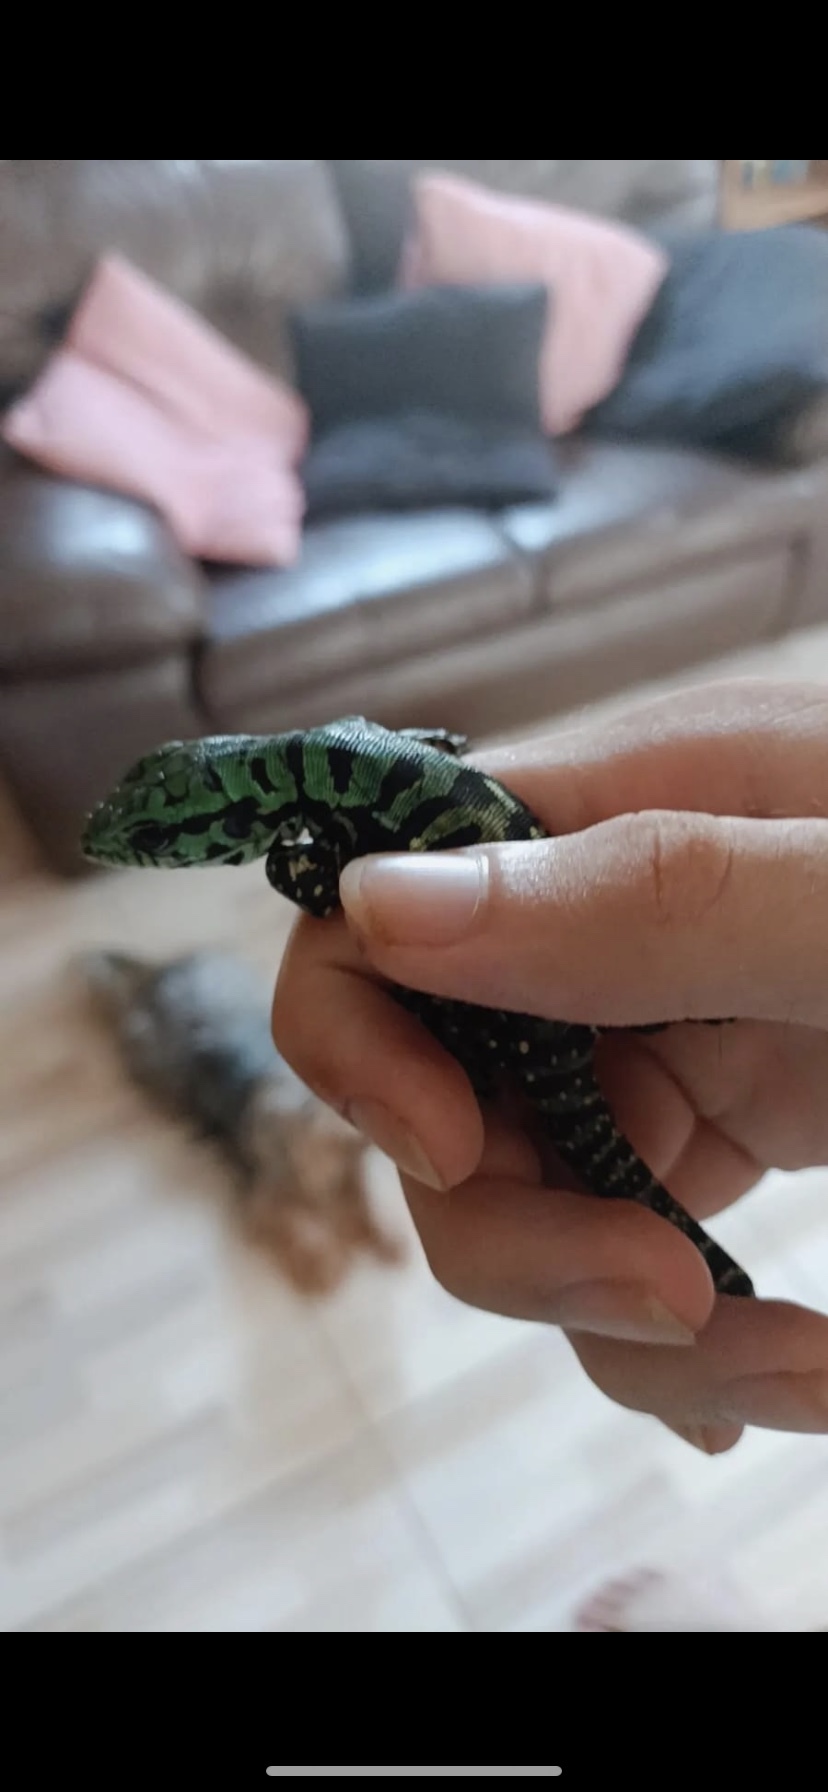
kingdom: Animalia
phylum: Chordata
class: Squamata
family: Teiidae
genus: Salvator
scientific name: Salvator merianae
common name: Argentine black and white tegu
